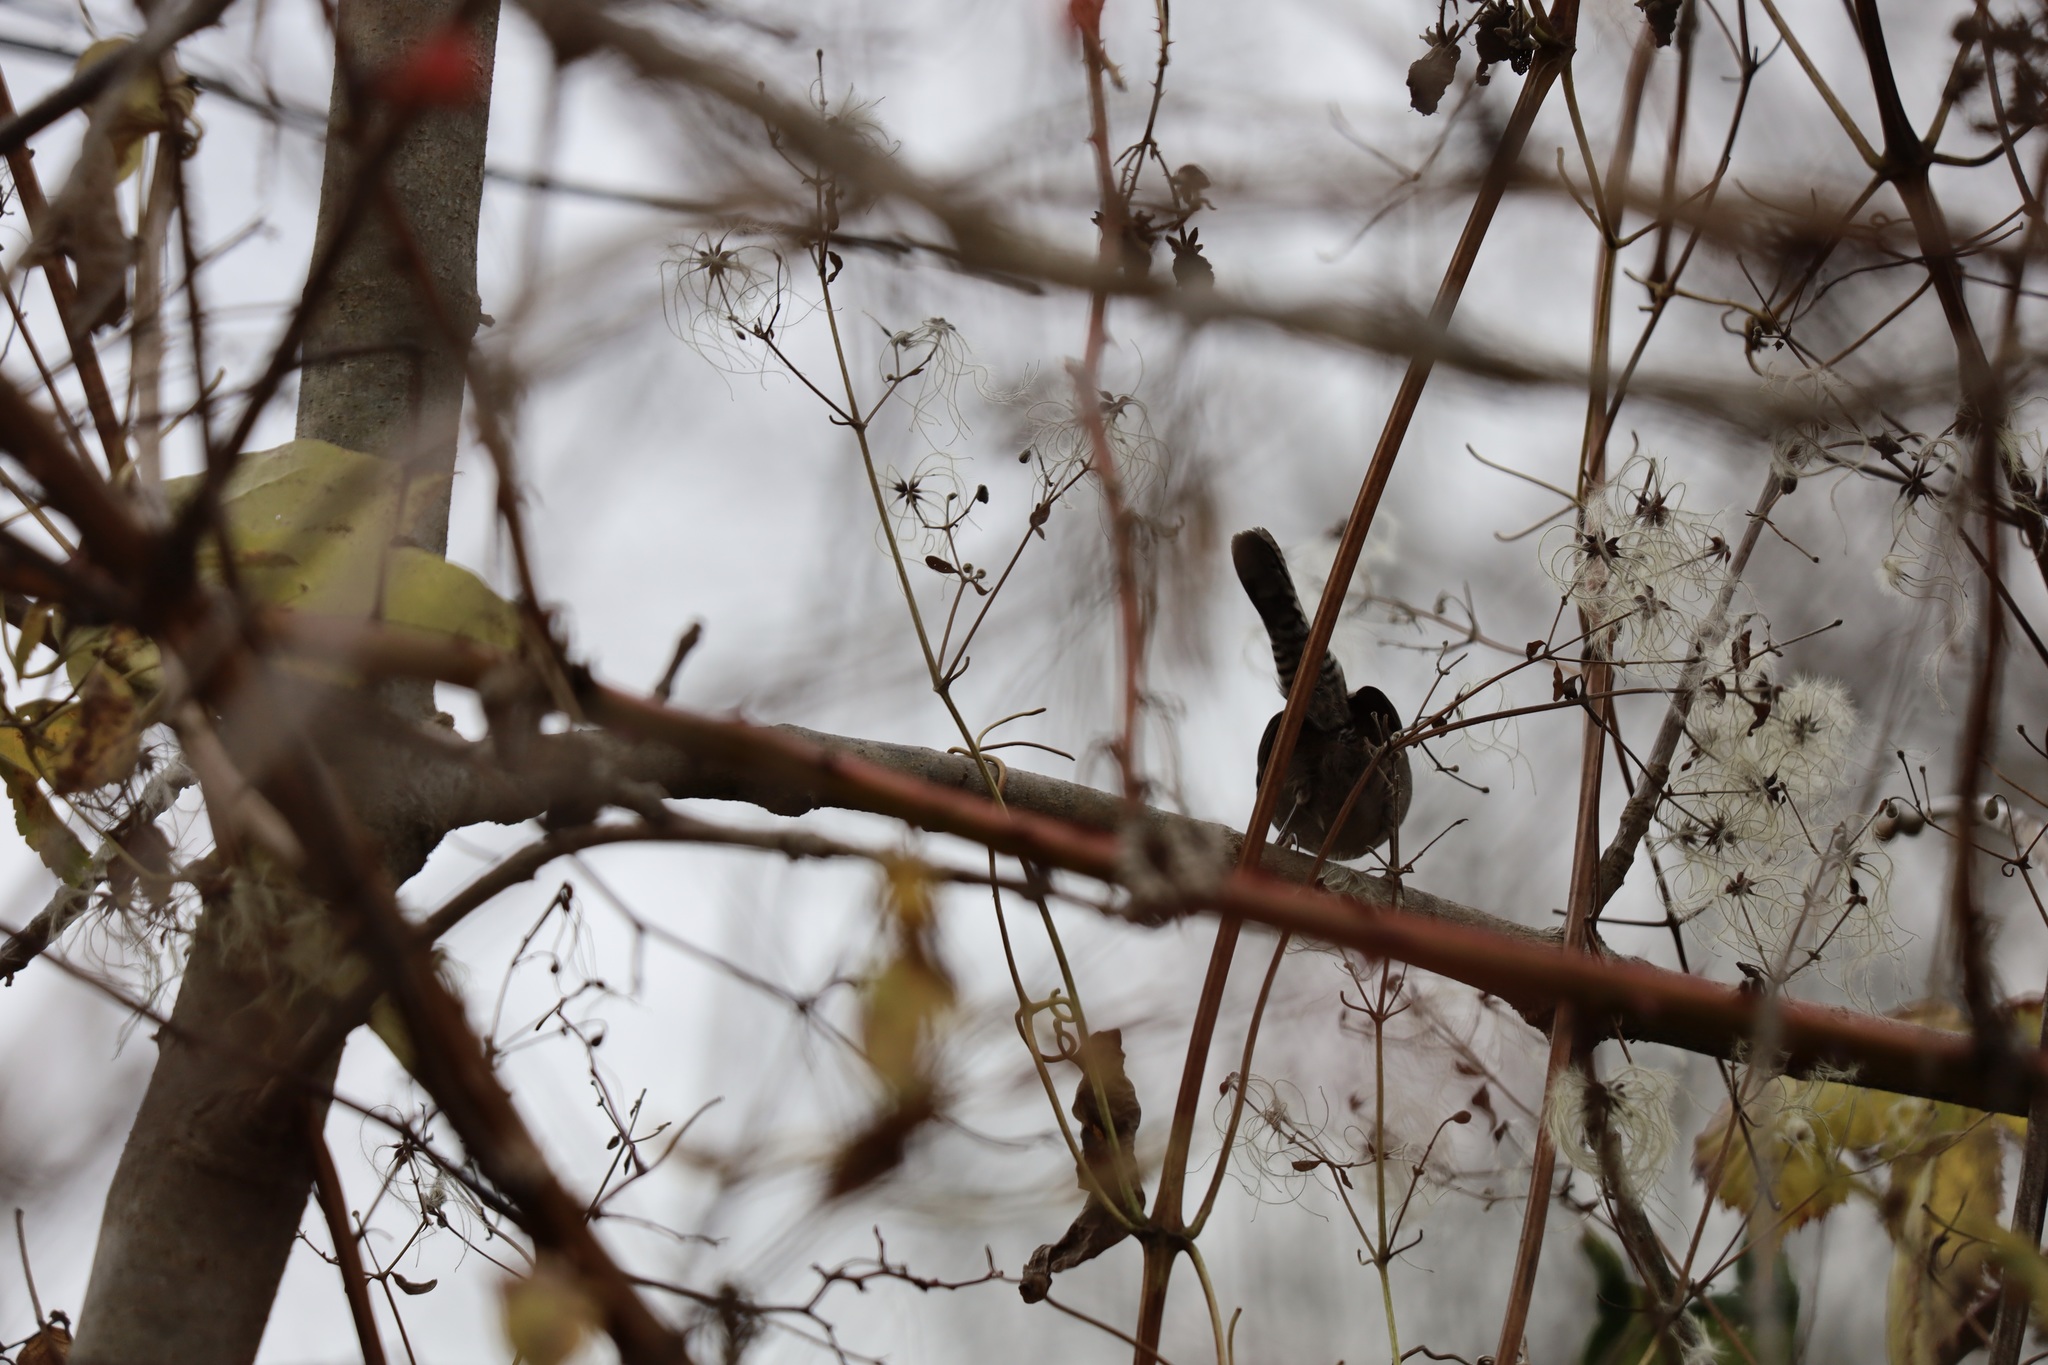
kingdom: Animalia
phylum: Chordata
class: Aves
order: Passeriformes
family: Troglodytidae
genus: Thryomanes
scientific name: Thryomanes bewickii
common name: Bewick's wren
